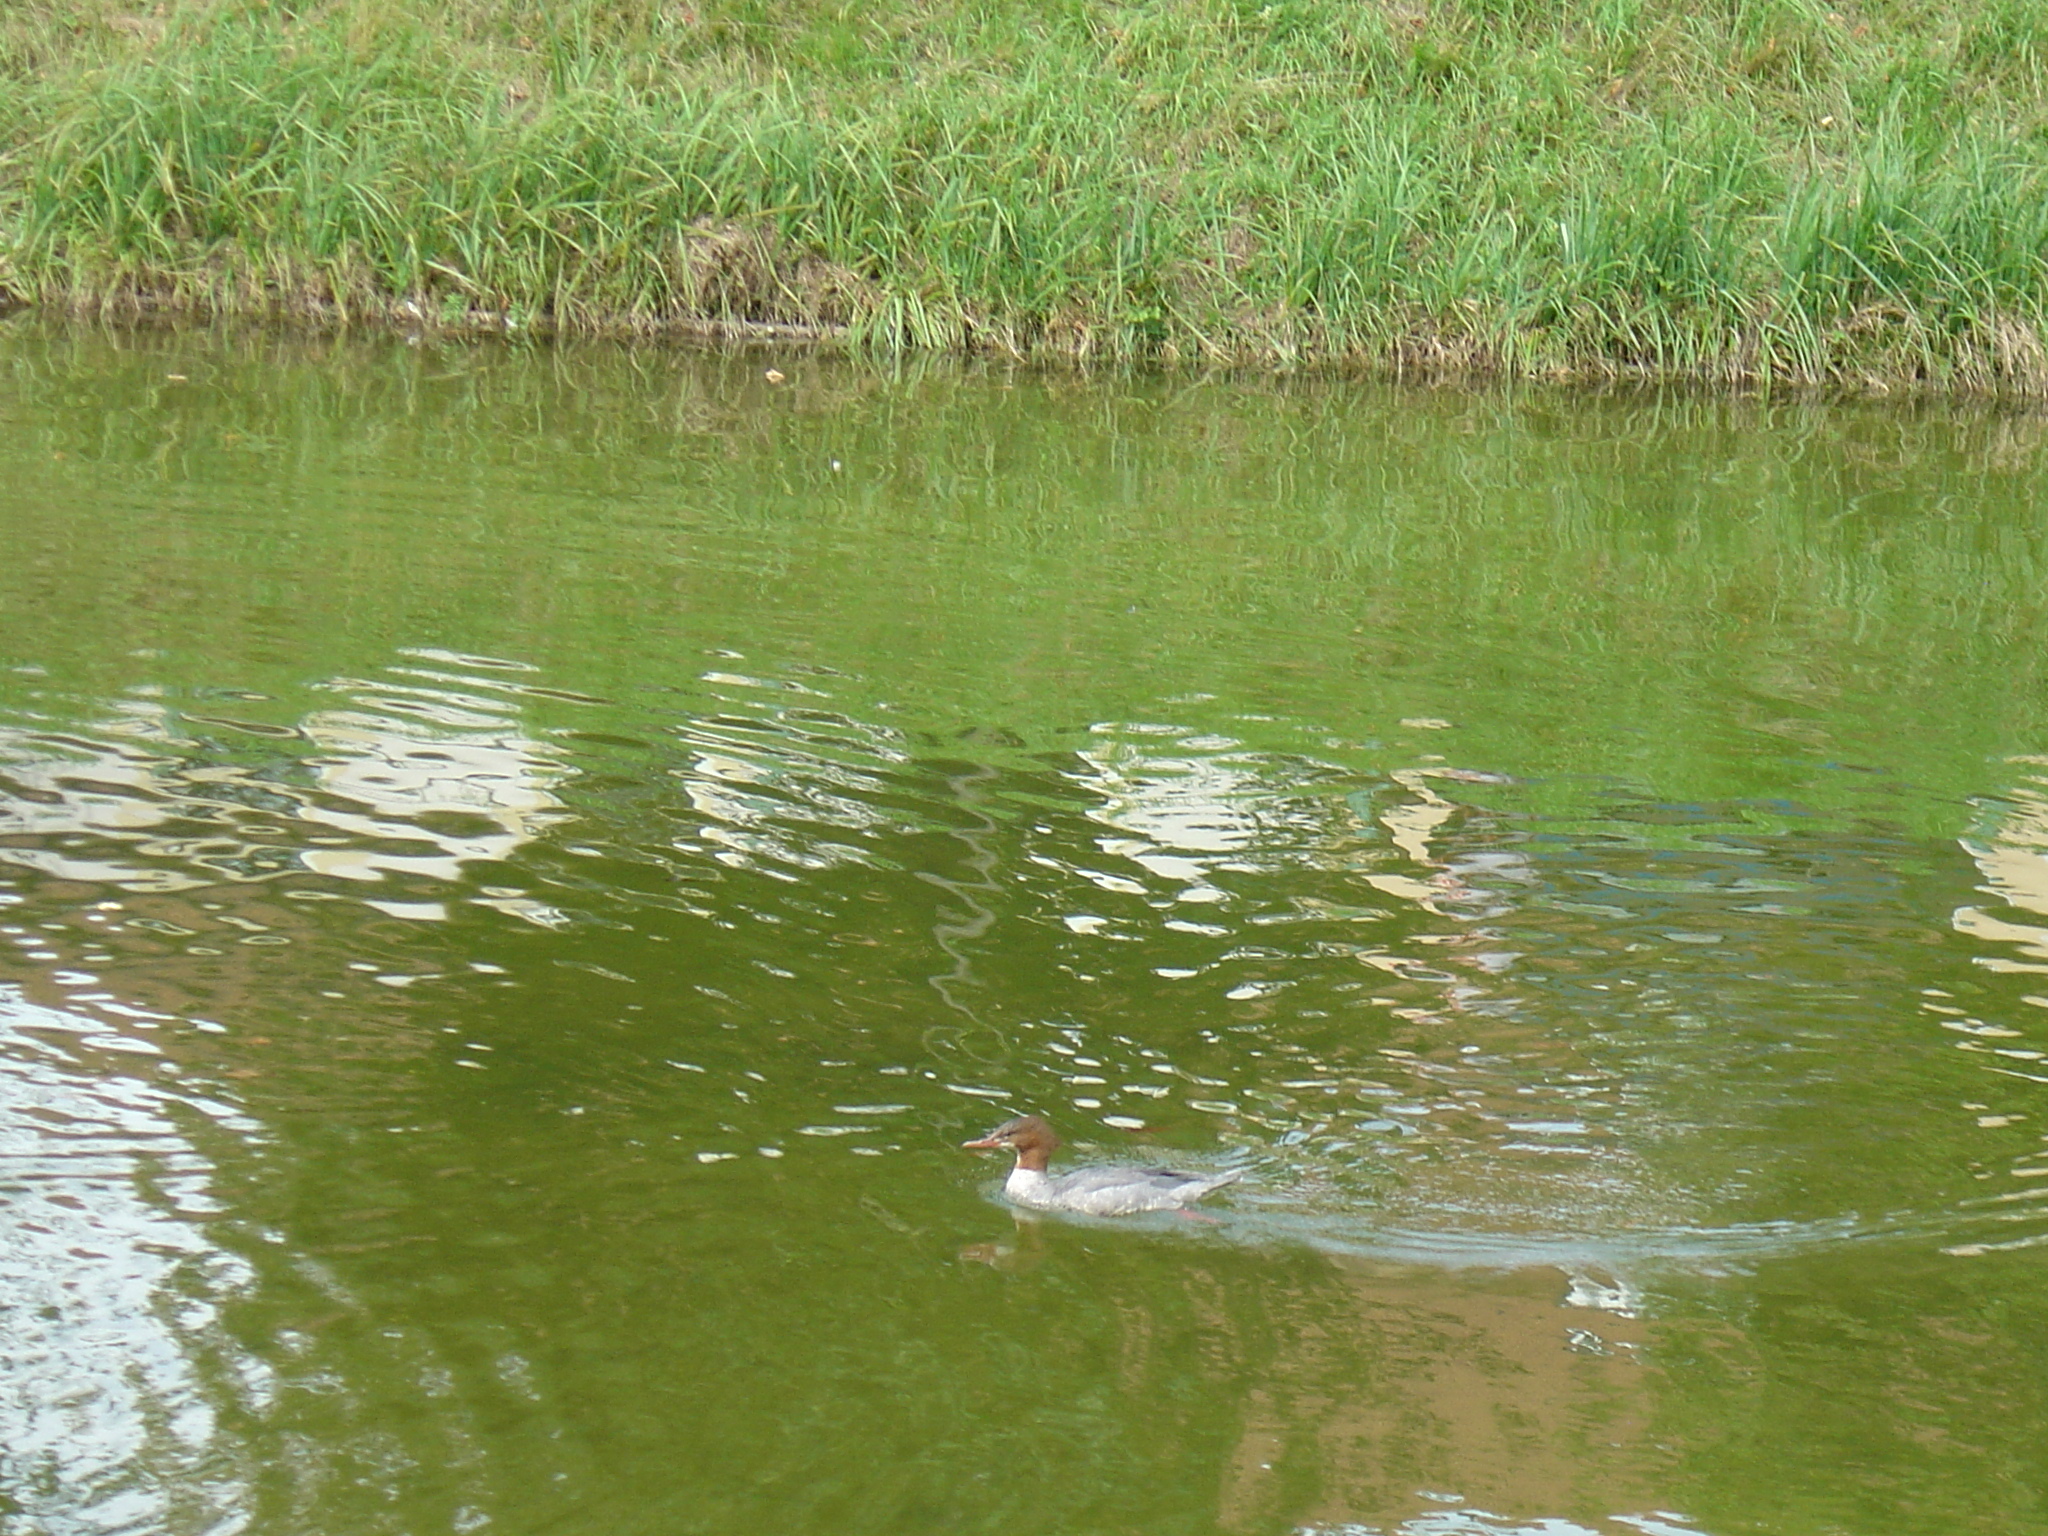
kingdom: Animalia
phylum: Chordata
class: Aves
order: Anseriformes
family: Anatidae
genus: Mergus
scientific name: Mergus merganser
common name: Common merganser
